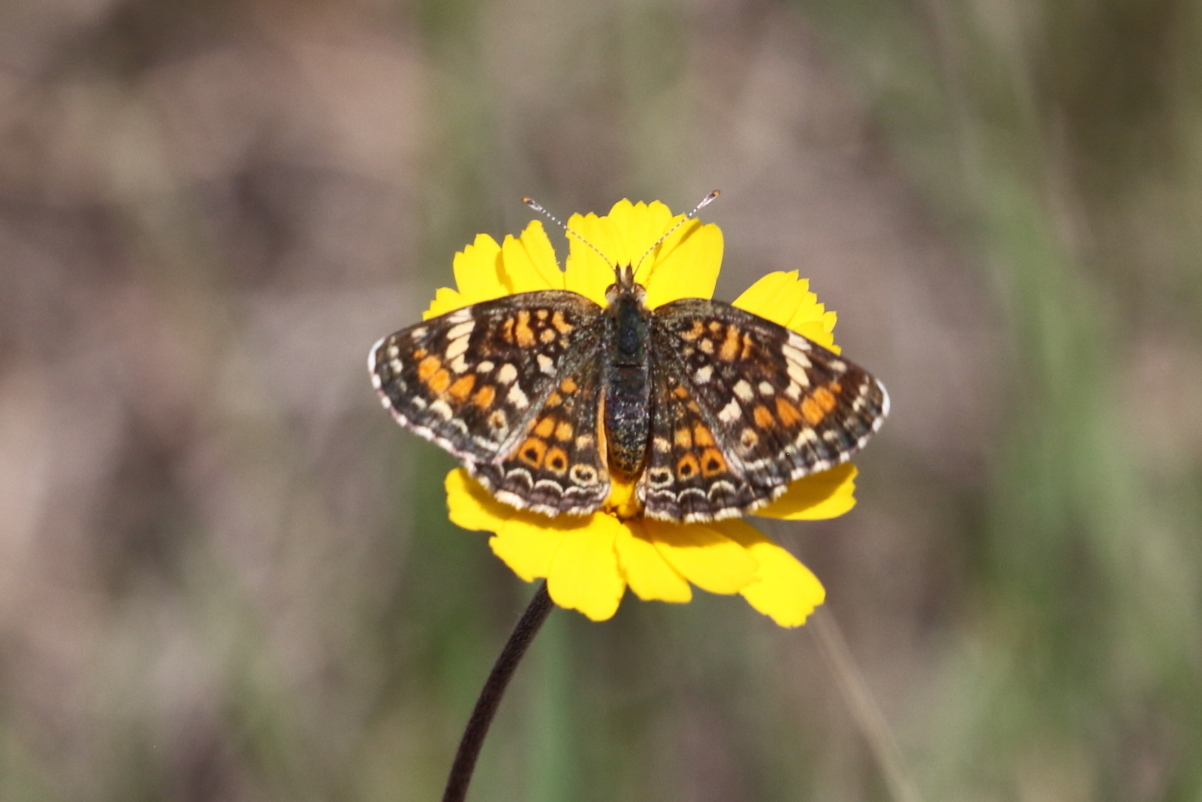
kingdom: Animalia
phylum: Arthropoda
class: Insecta
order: Lepidoptera
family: Nymphalidae
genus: Phyciodes
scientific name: Phyciodes phaon
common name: Phaon crescent
